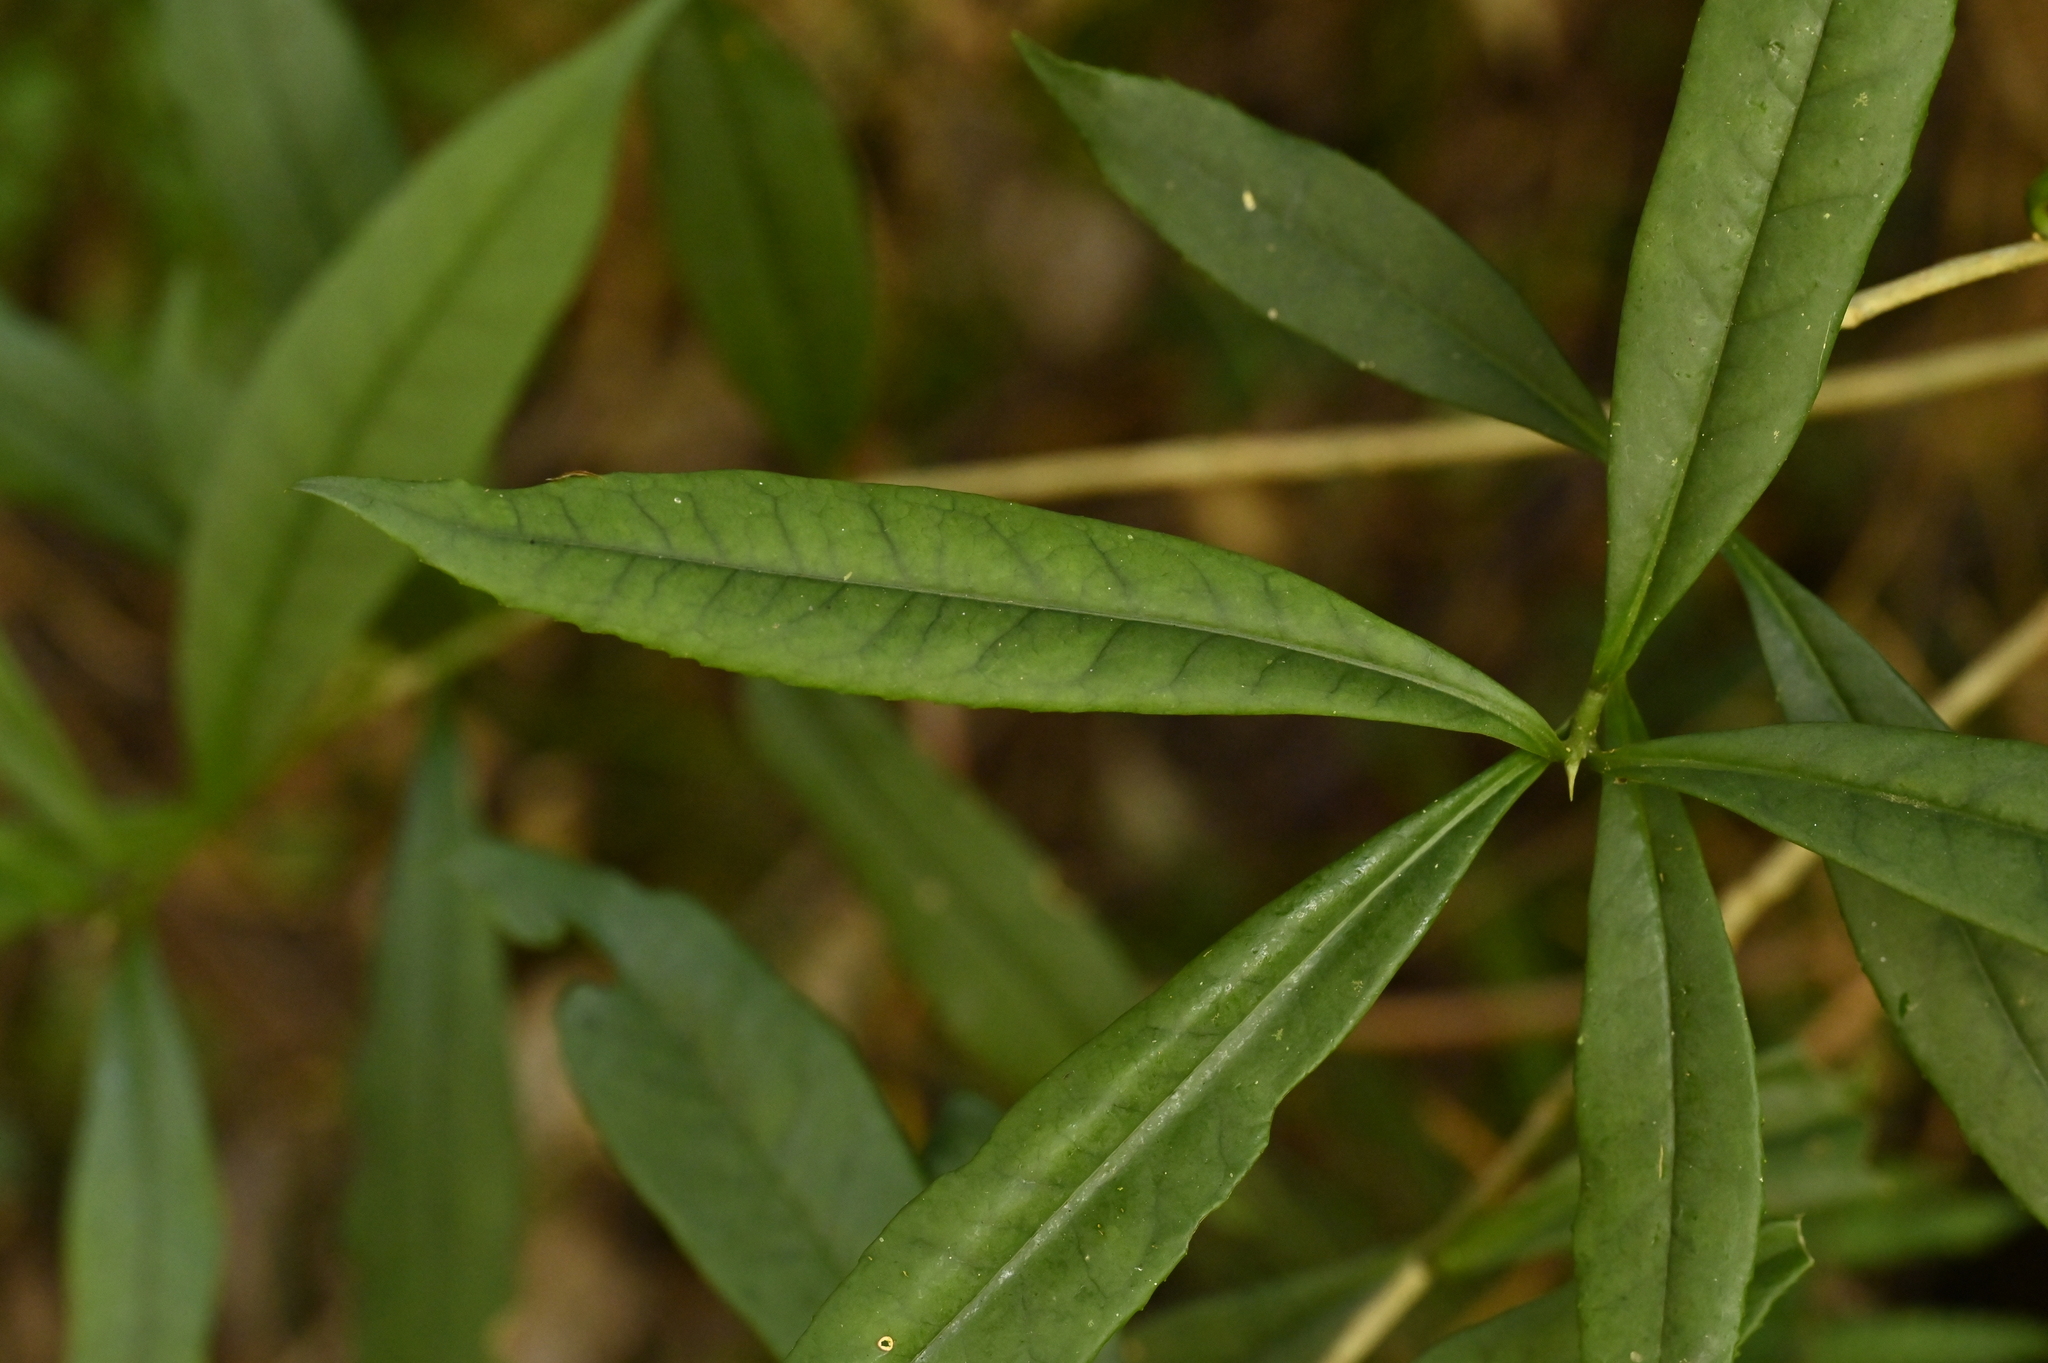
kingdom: Plantae
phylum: Tracheophyta
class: Magnoliopsida
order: Ericales
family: Symplocaceae
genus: Symplocos
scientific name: Symplocos glauca
